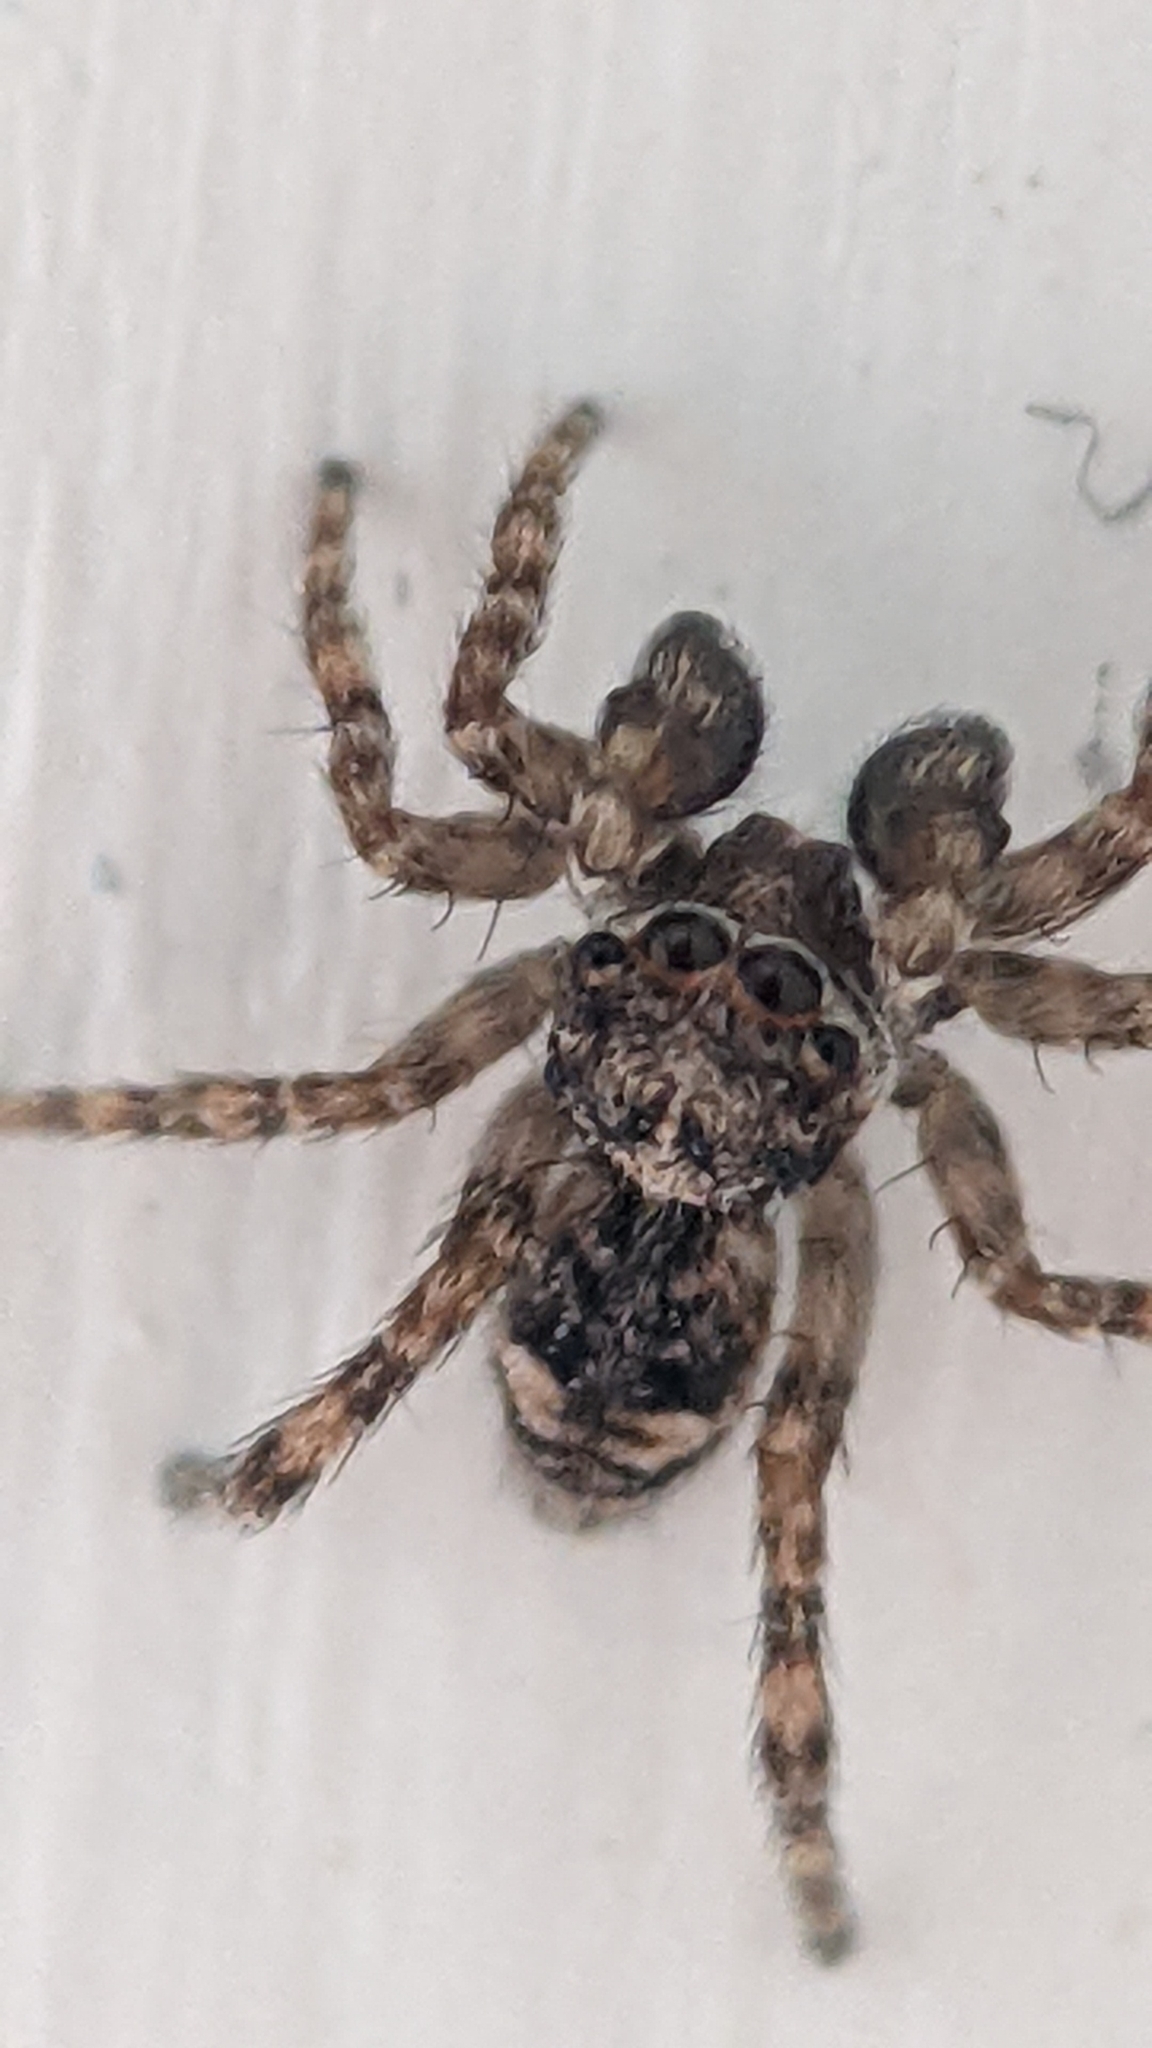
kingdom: Animalia
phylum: Arthropoda
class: Arachnida
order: Araneae
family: Salticidae
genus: Attulus
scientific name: Attulus fasciger
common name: Asiatic wall jumping spider
